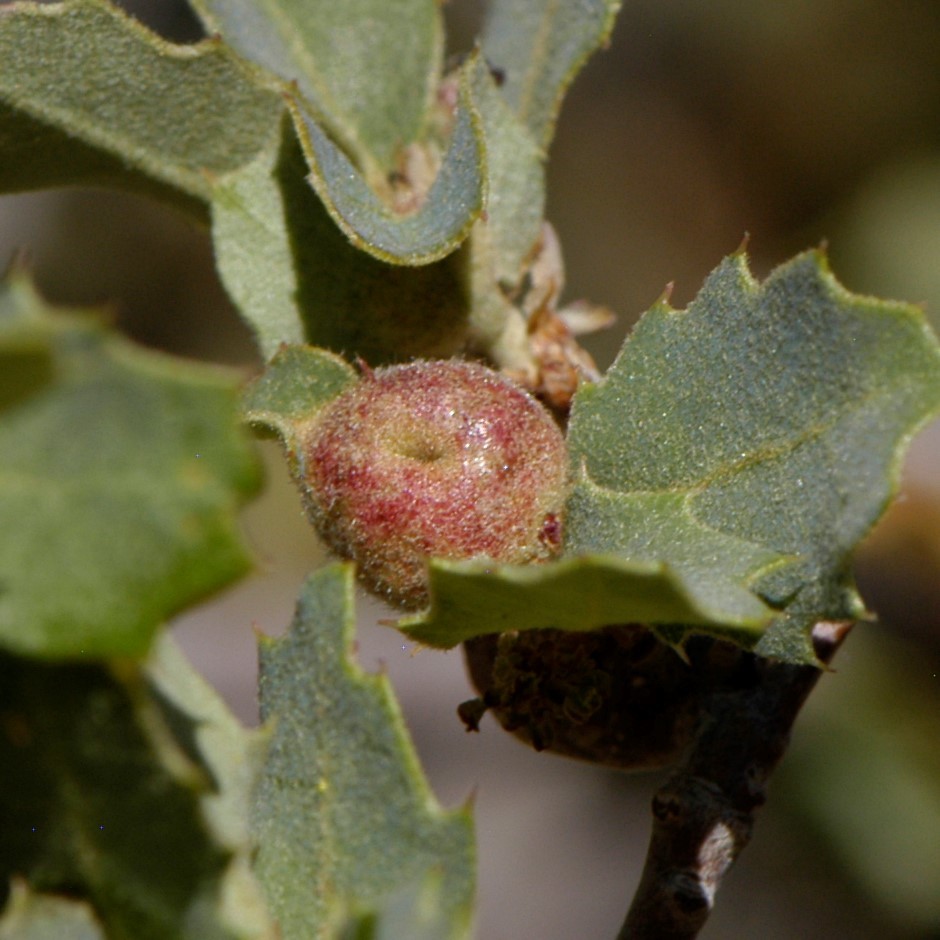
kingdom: Animalia
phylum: Arthropoda
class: Insecta
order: Hymenoptera
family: Cynipidae
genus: Andricus
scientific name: Andricus
